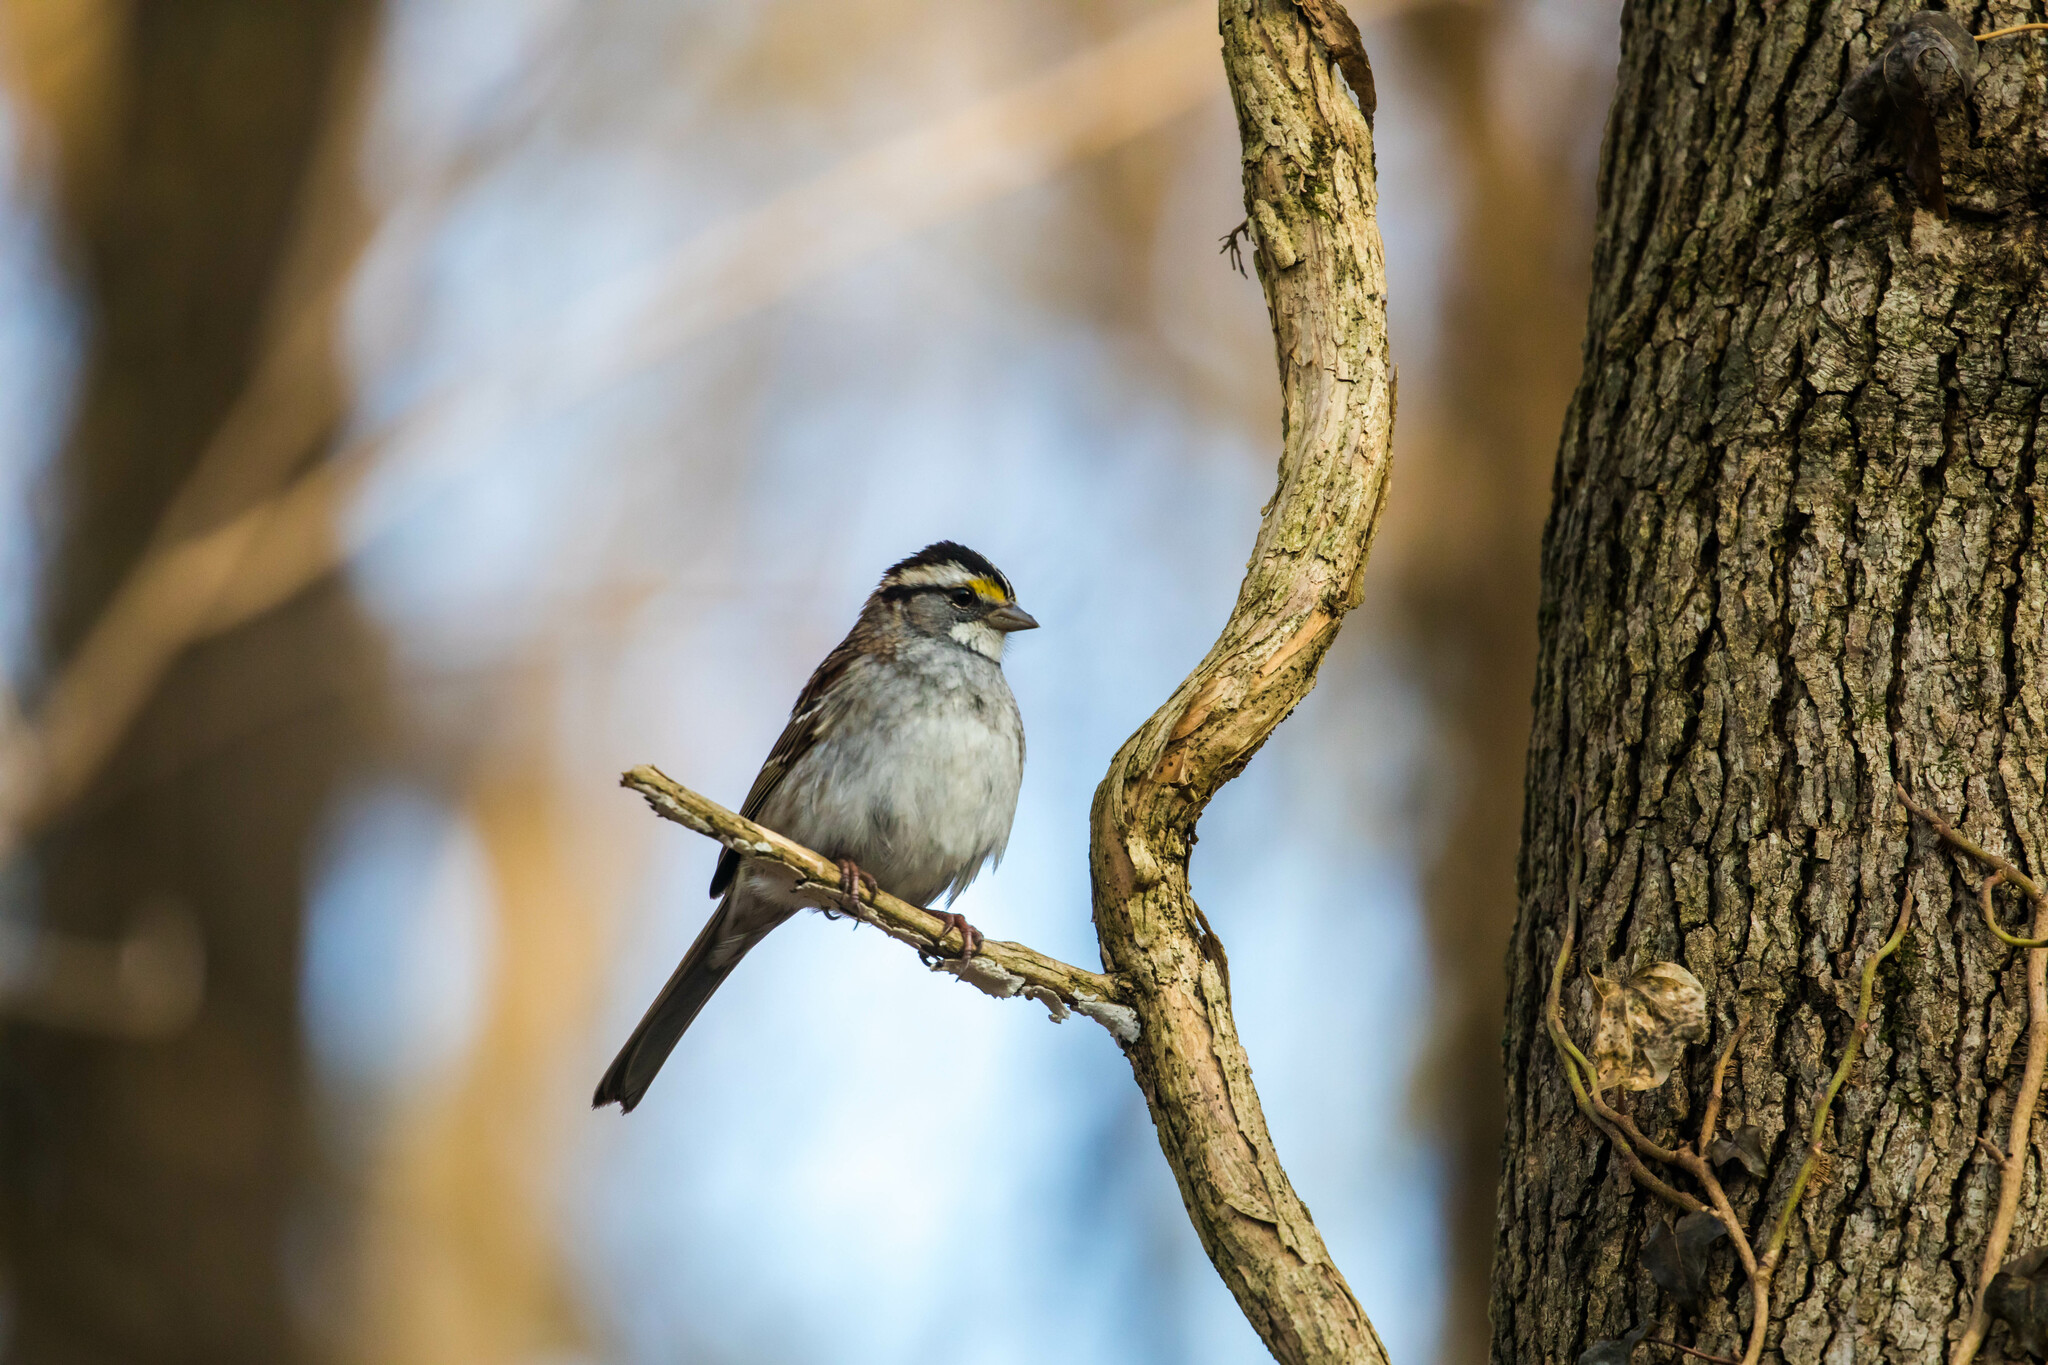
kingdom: Animalia
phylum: Chordata
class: Aves
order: Passeriformes
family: Passerellidae
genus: Zonotrichia
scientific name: Zonotrichia albicollis
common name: White-throated sparrow
